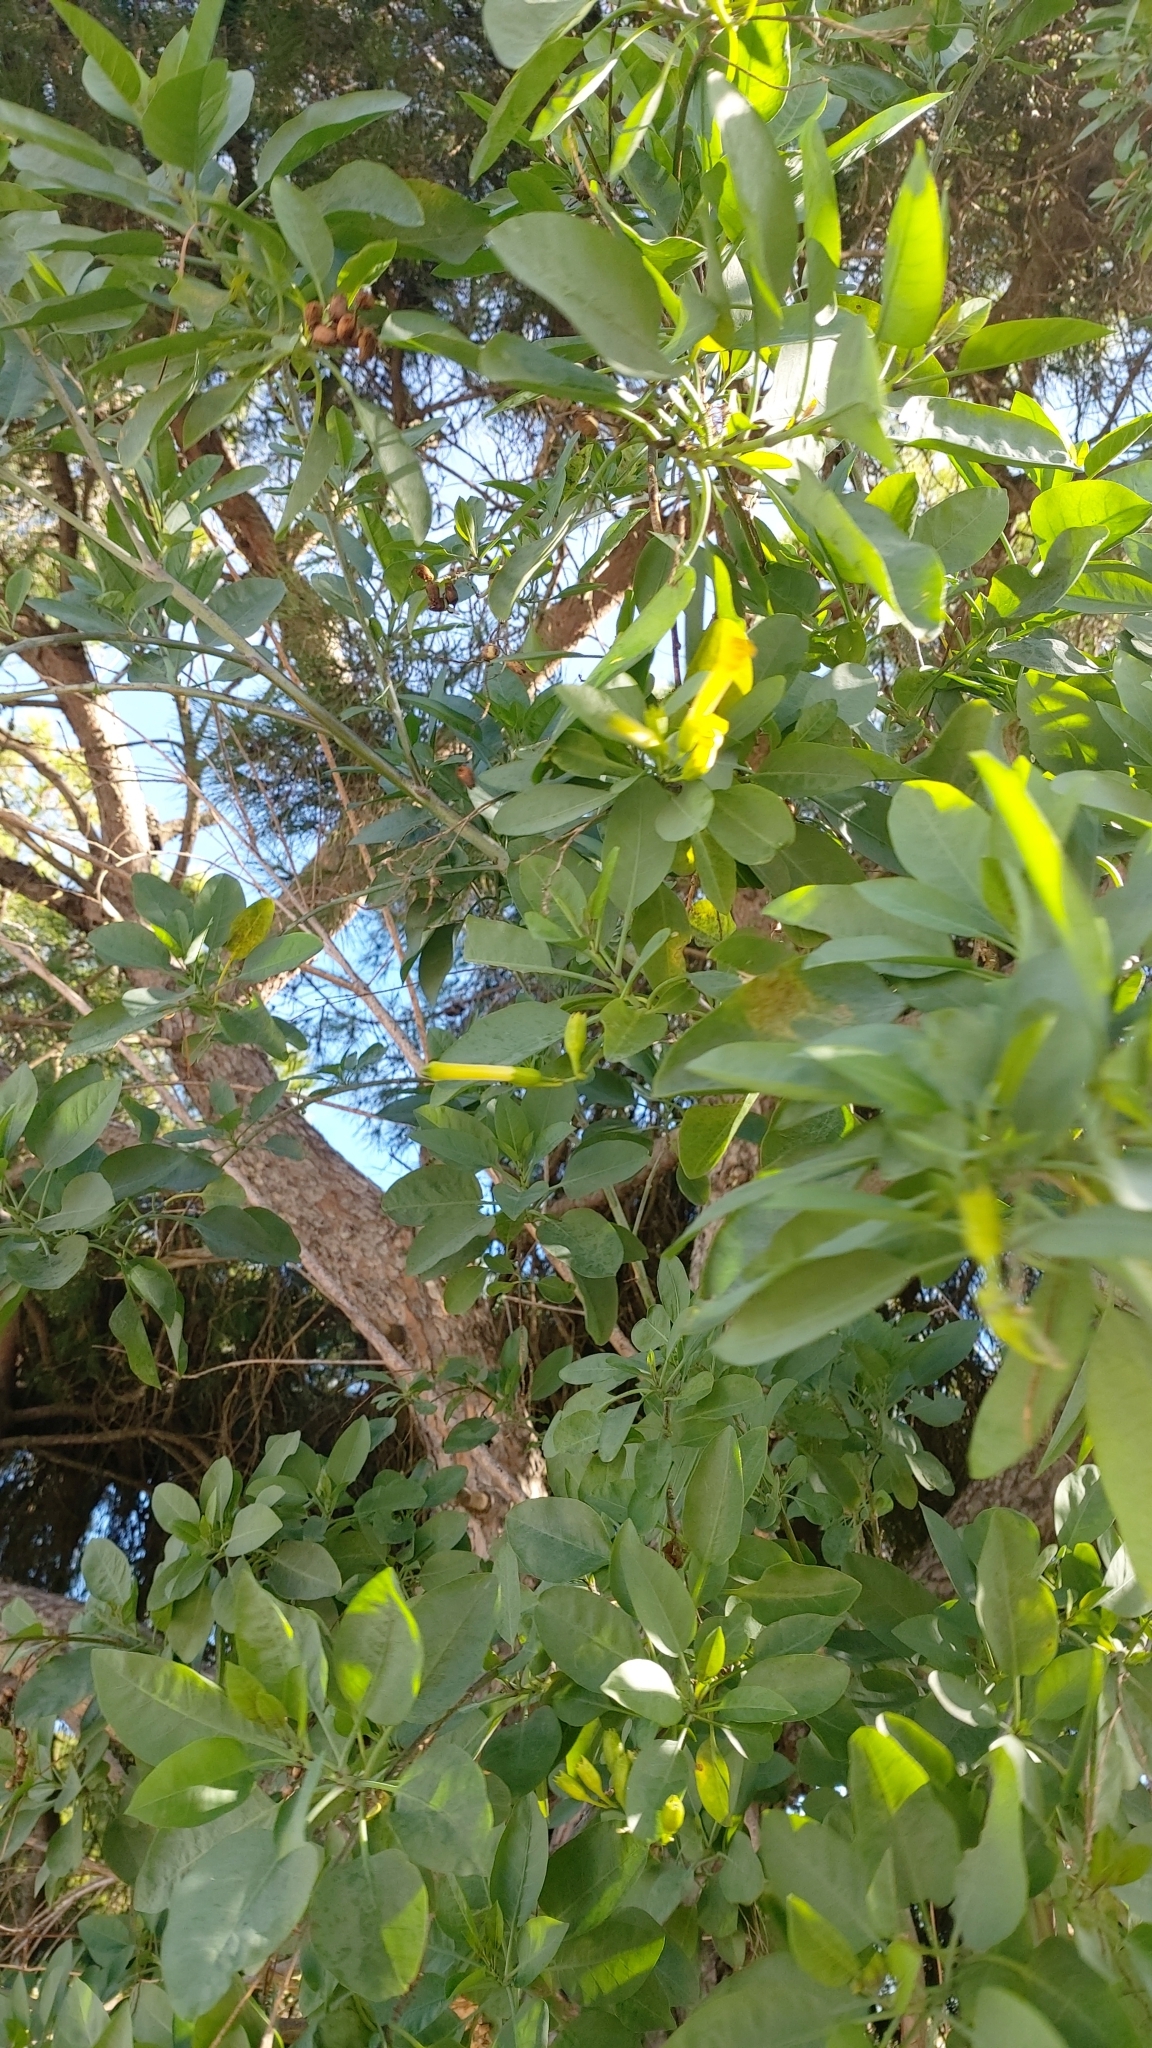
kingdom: Plantae
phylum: Tracheophyta
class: Magnoliopsida
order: Solanales
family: Solanaceae
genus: Nicotiana
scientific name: Nicotiana glauca
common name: Tree tobacco
